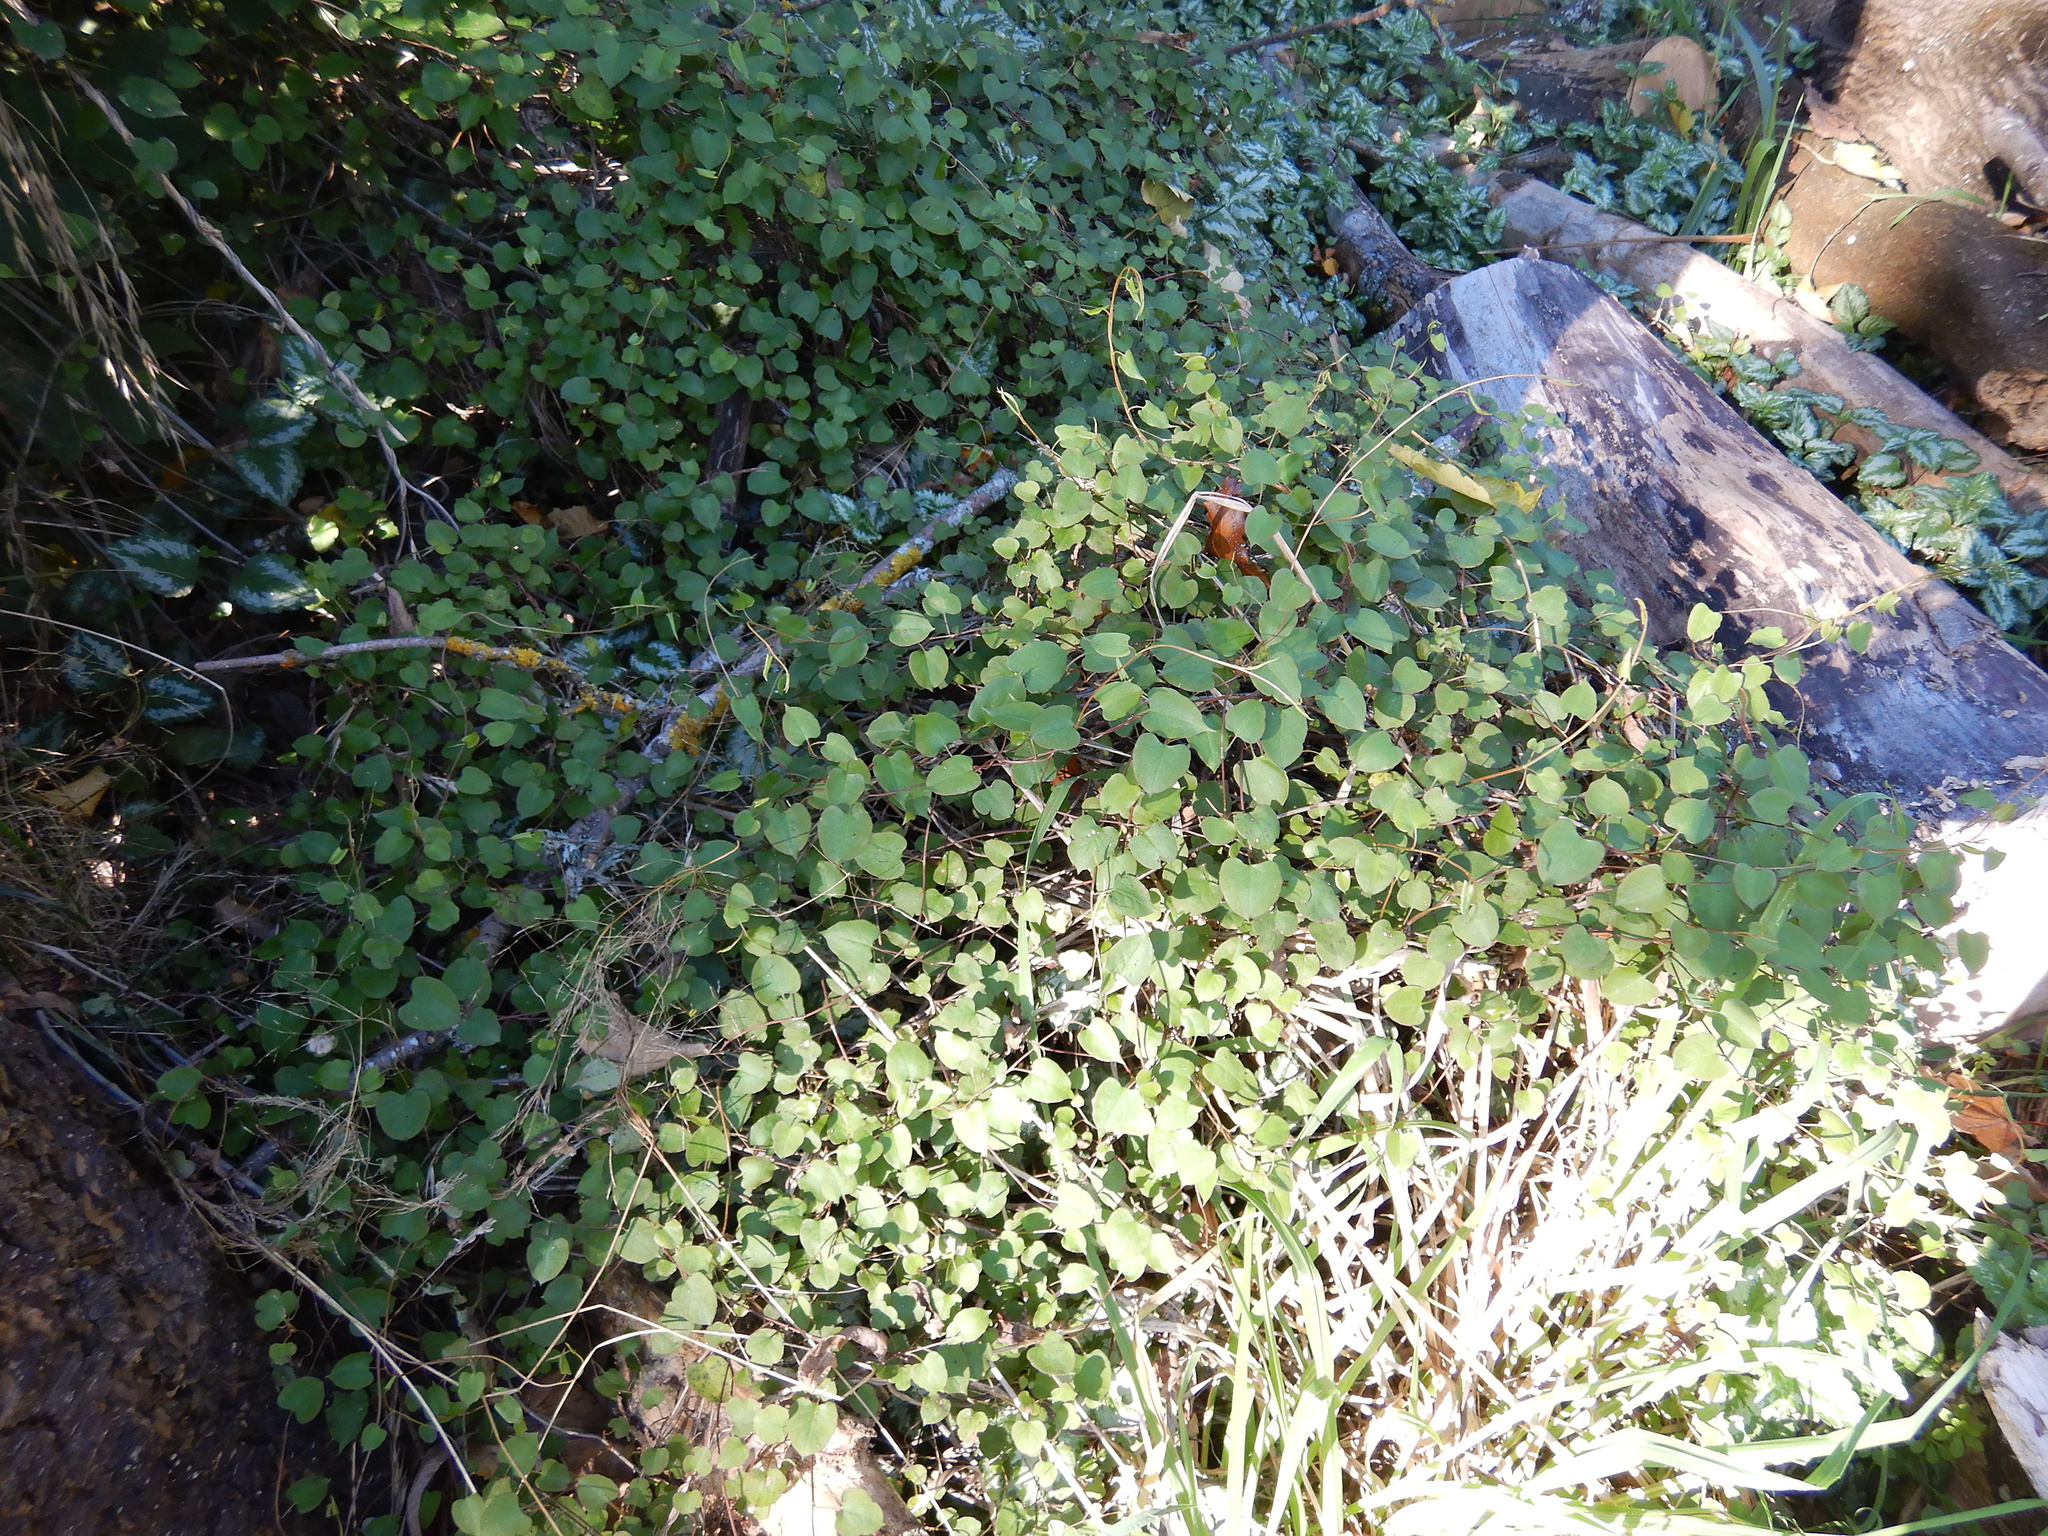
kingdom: Plantae
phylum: Tracheophyta
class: Magnoliopsida
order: Caryophyllales
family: Polygonaceae
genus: Muehlenbeckia
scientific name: Muehlenbeckia australis
